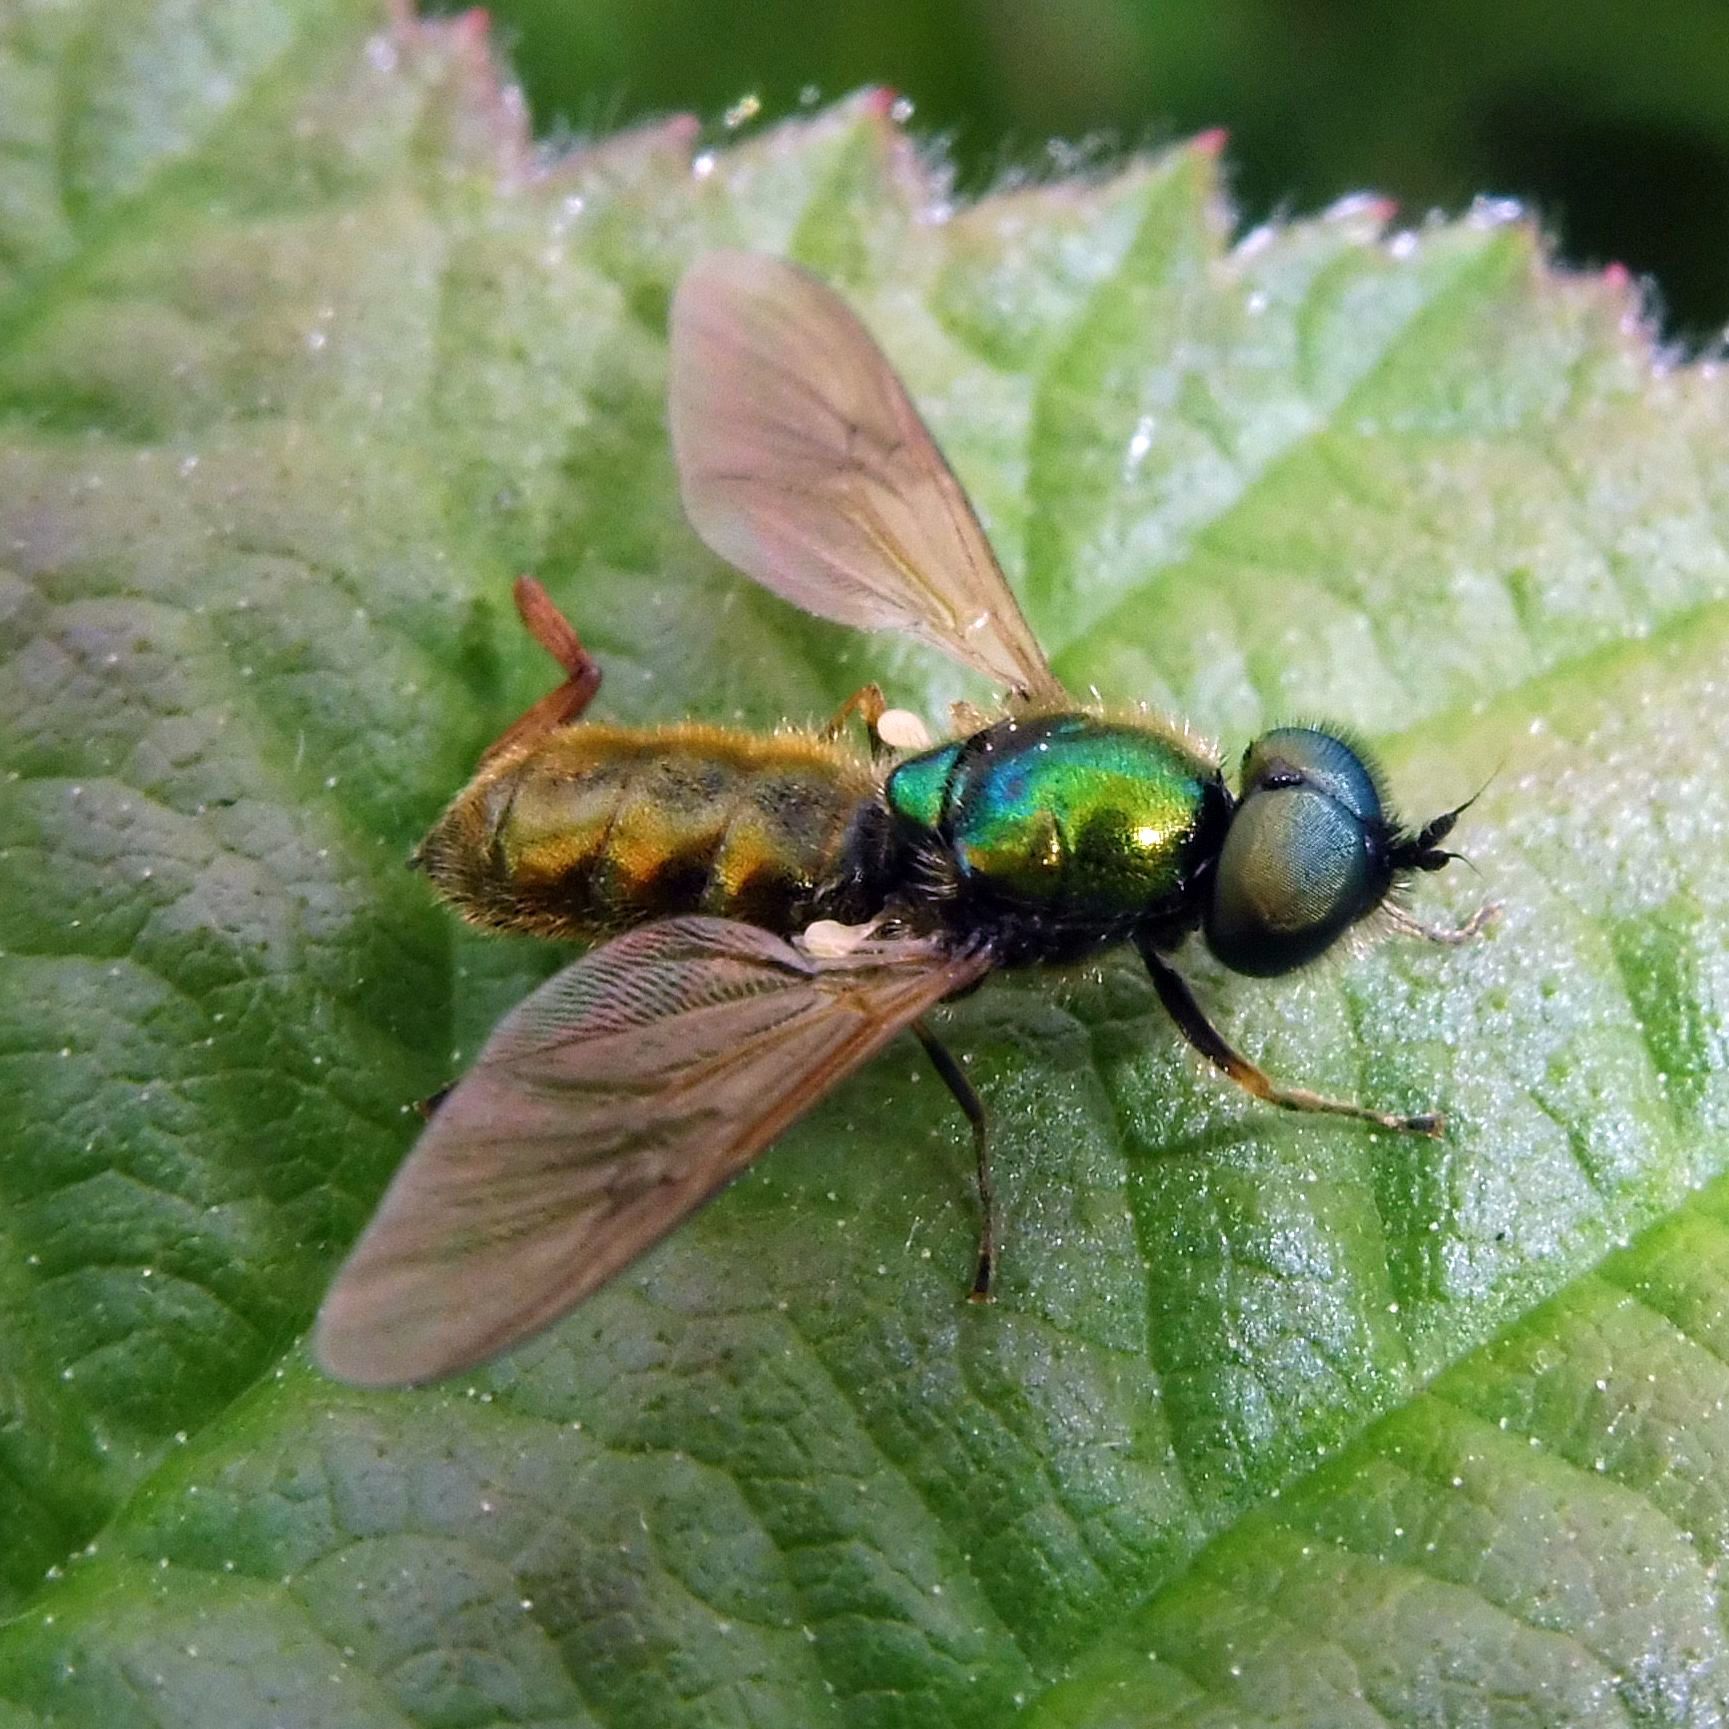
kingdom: Animalia
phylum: Arthropoda
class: Insecta
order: Diptera
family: Stratiomyidae
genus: Chloromyia
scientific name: Chloromyia formosa
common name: Soldier fly
